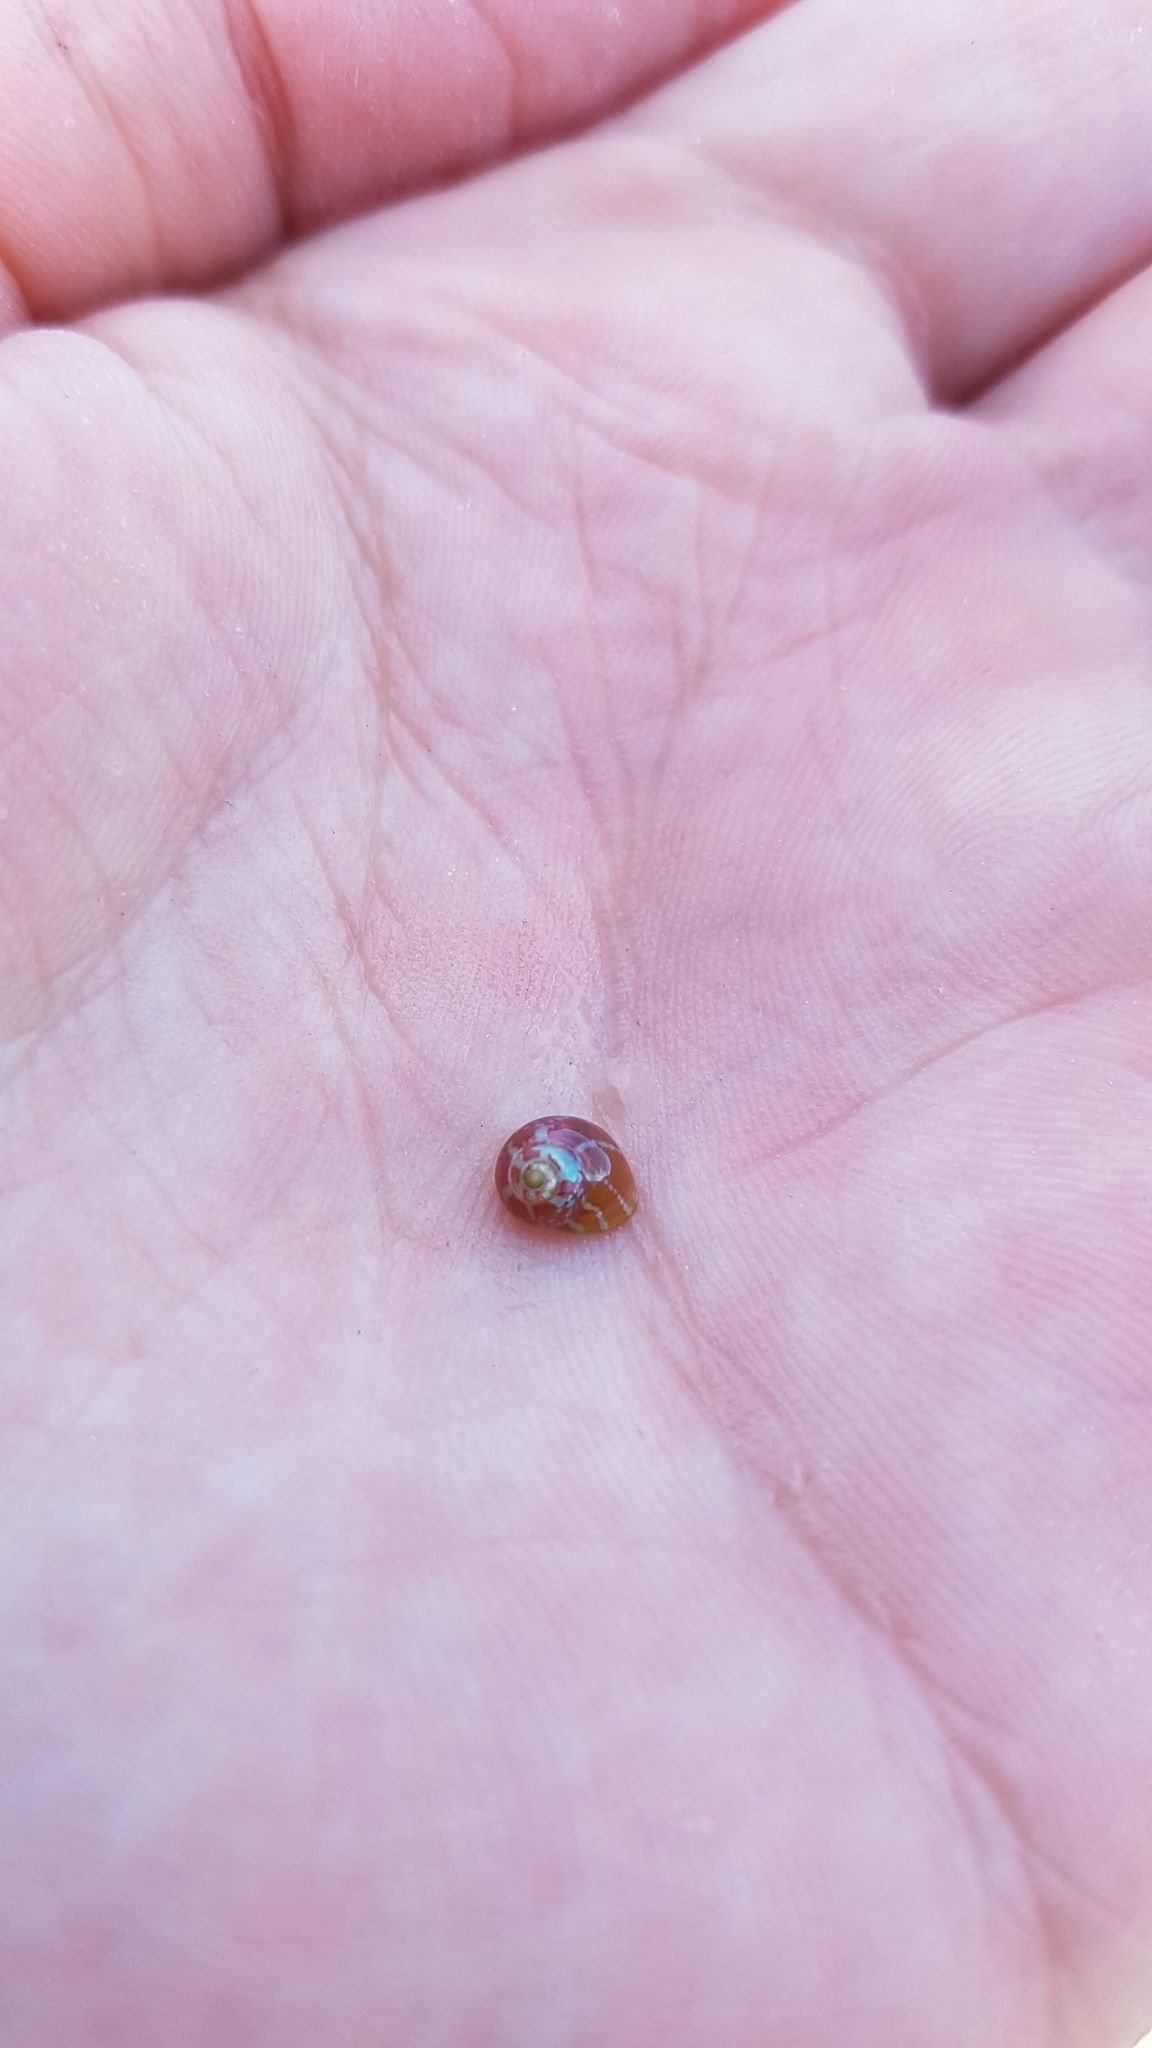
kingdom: Animalia
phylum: Mollusca
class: Gastropoda
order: Trochida
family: Trochidae
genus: Cantharidus
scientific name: Cantharidus dilatatus
